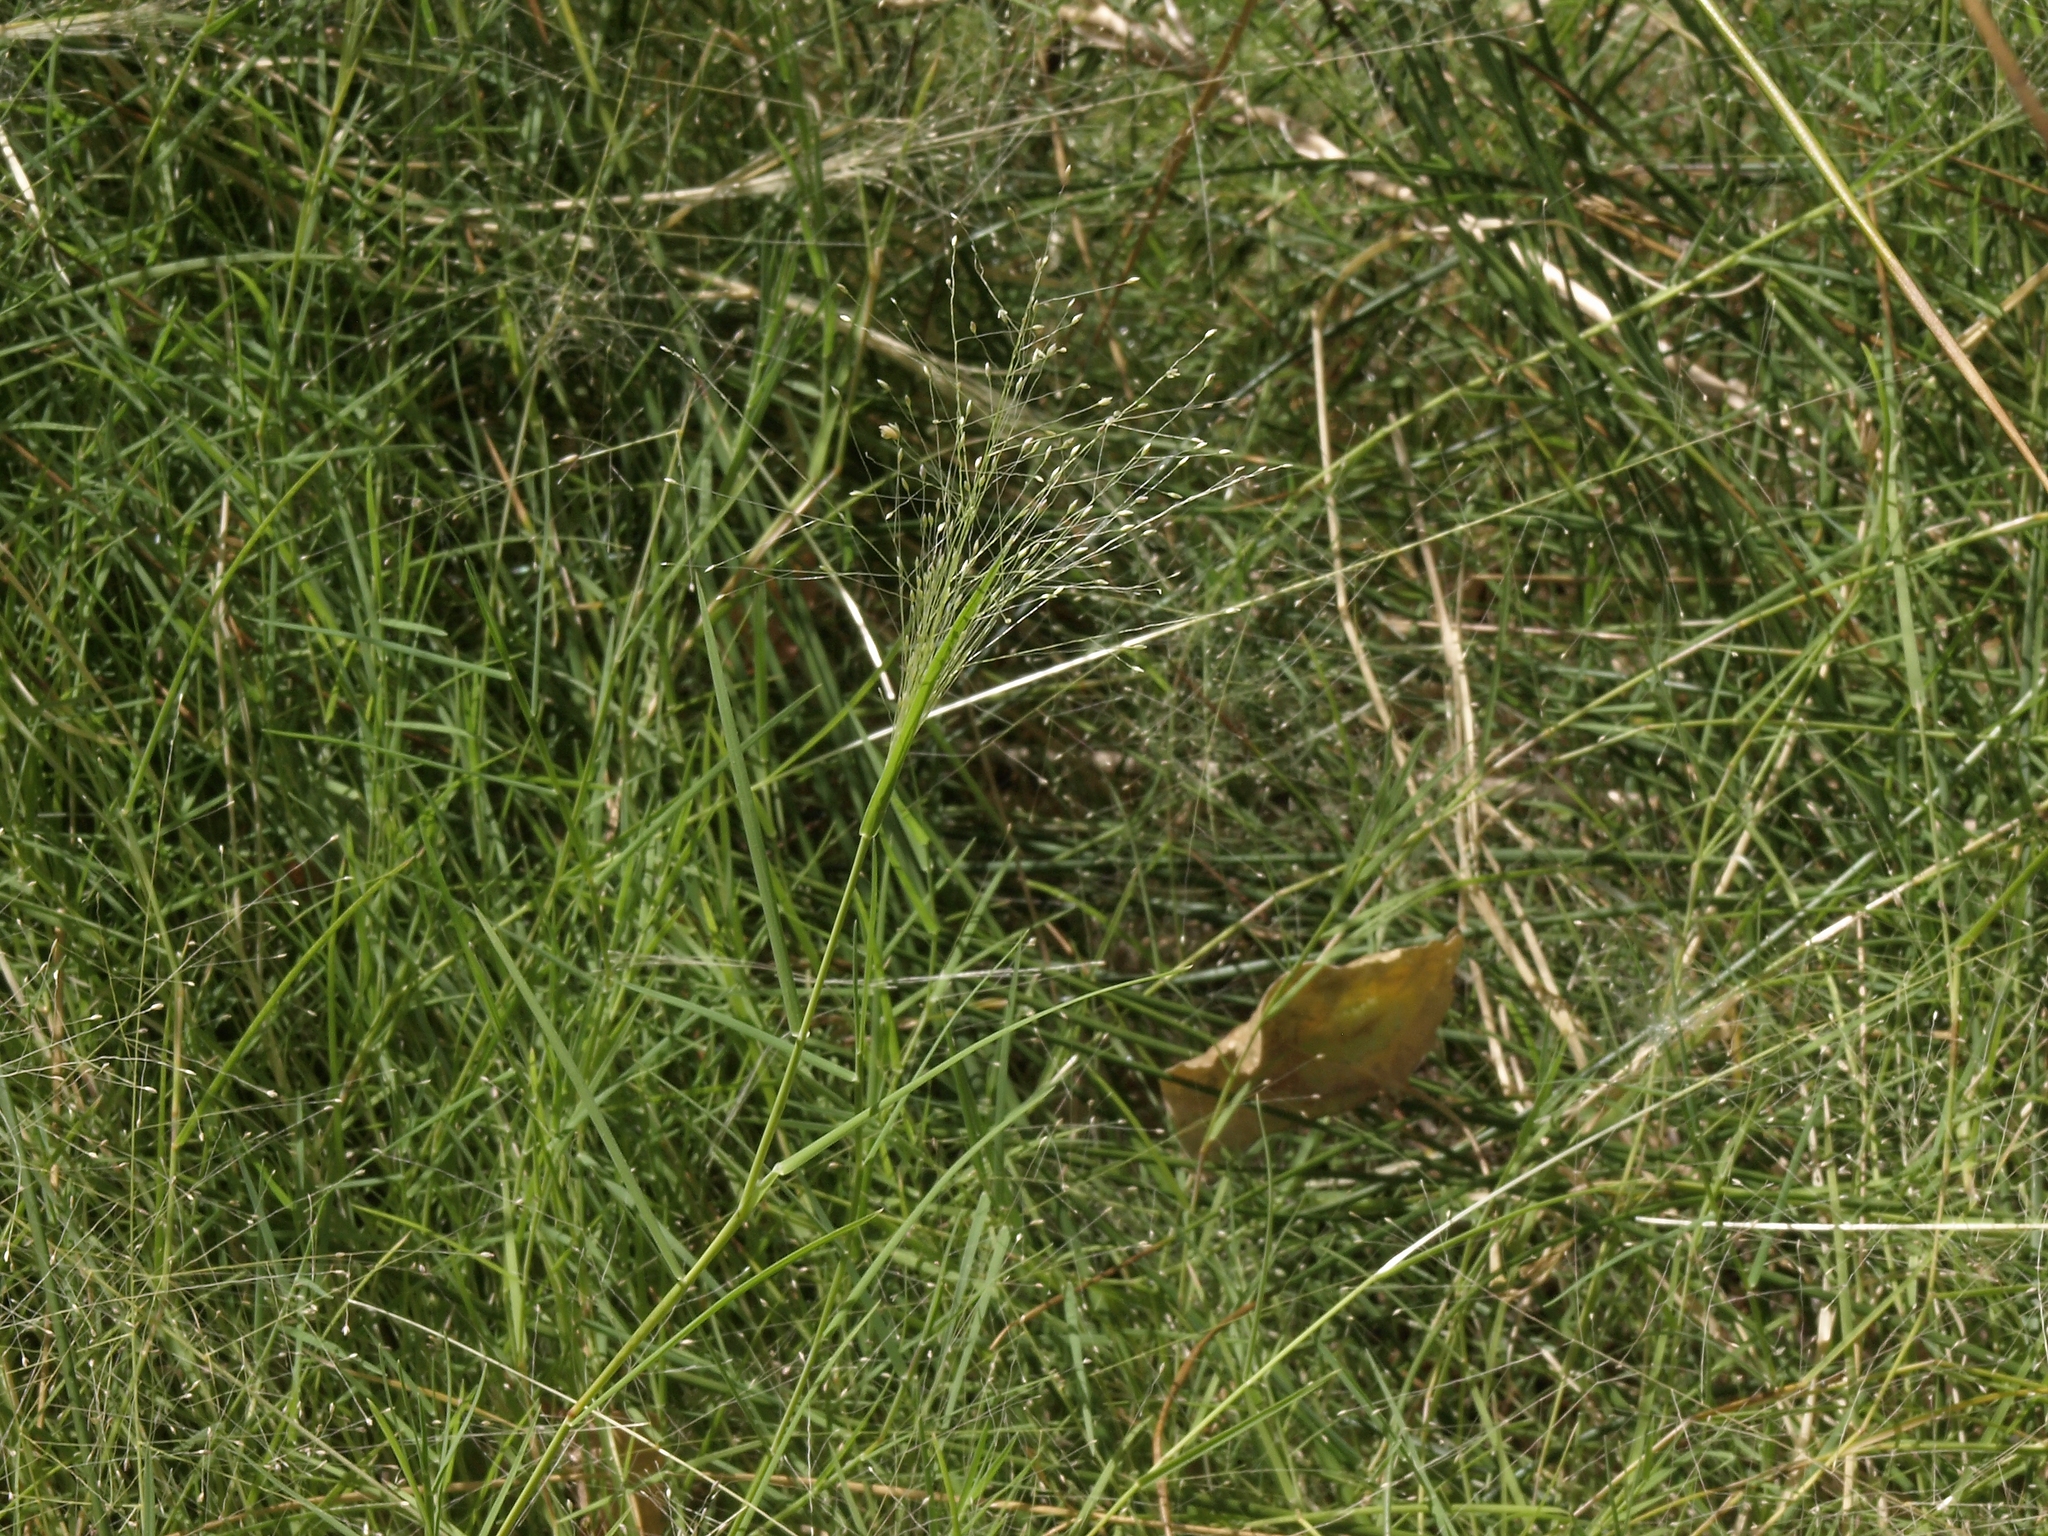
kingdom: Plantae
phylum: Tracheophyta
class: Liliopsida
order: Poales
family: Poaceae
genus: Muhlenbergia
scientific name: Muhlenbergia asperifolia
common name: Alkali muhly
